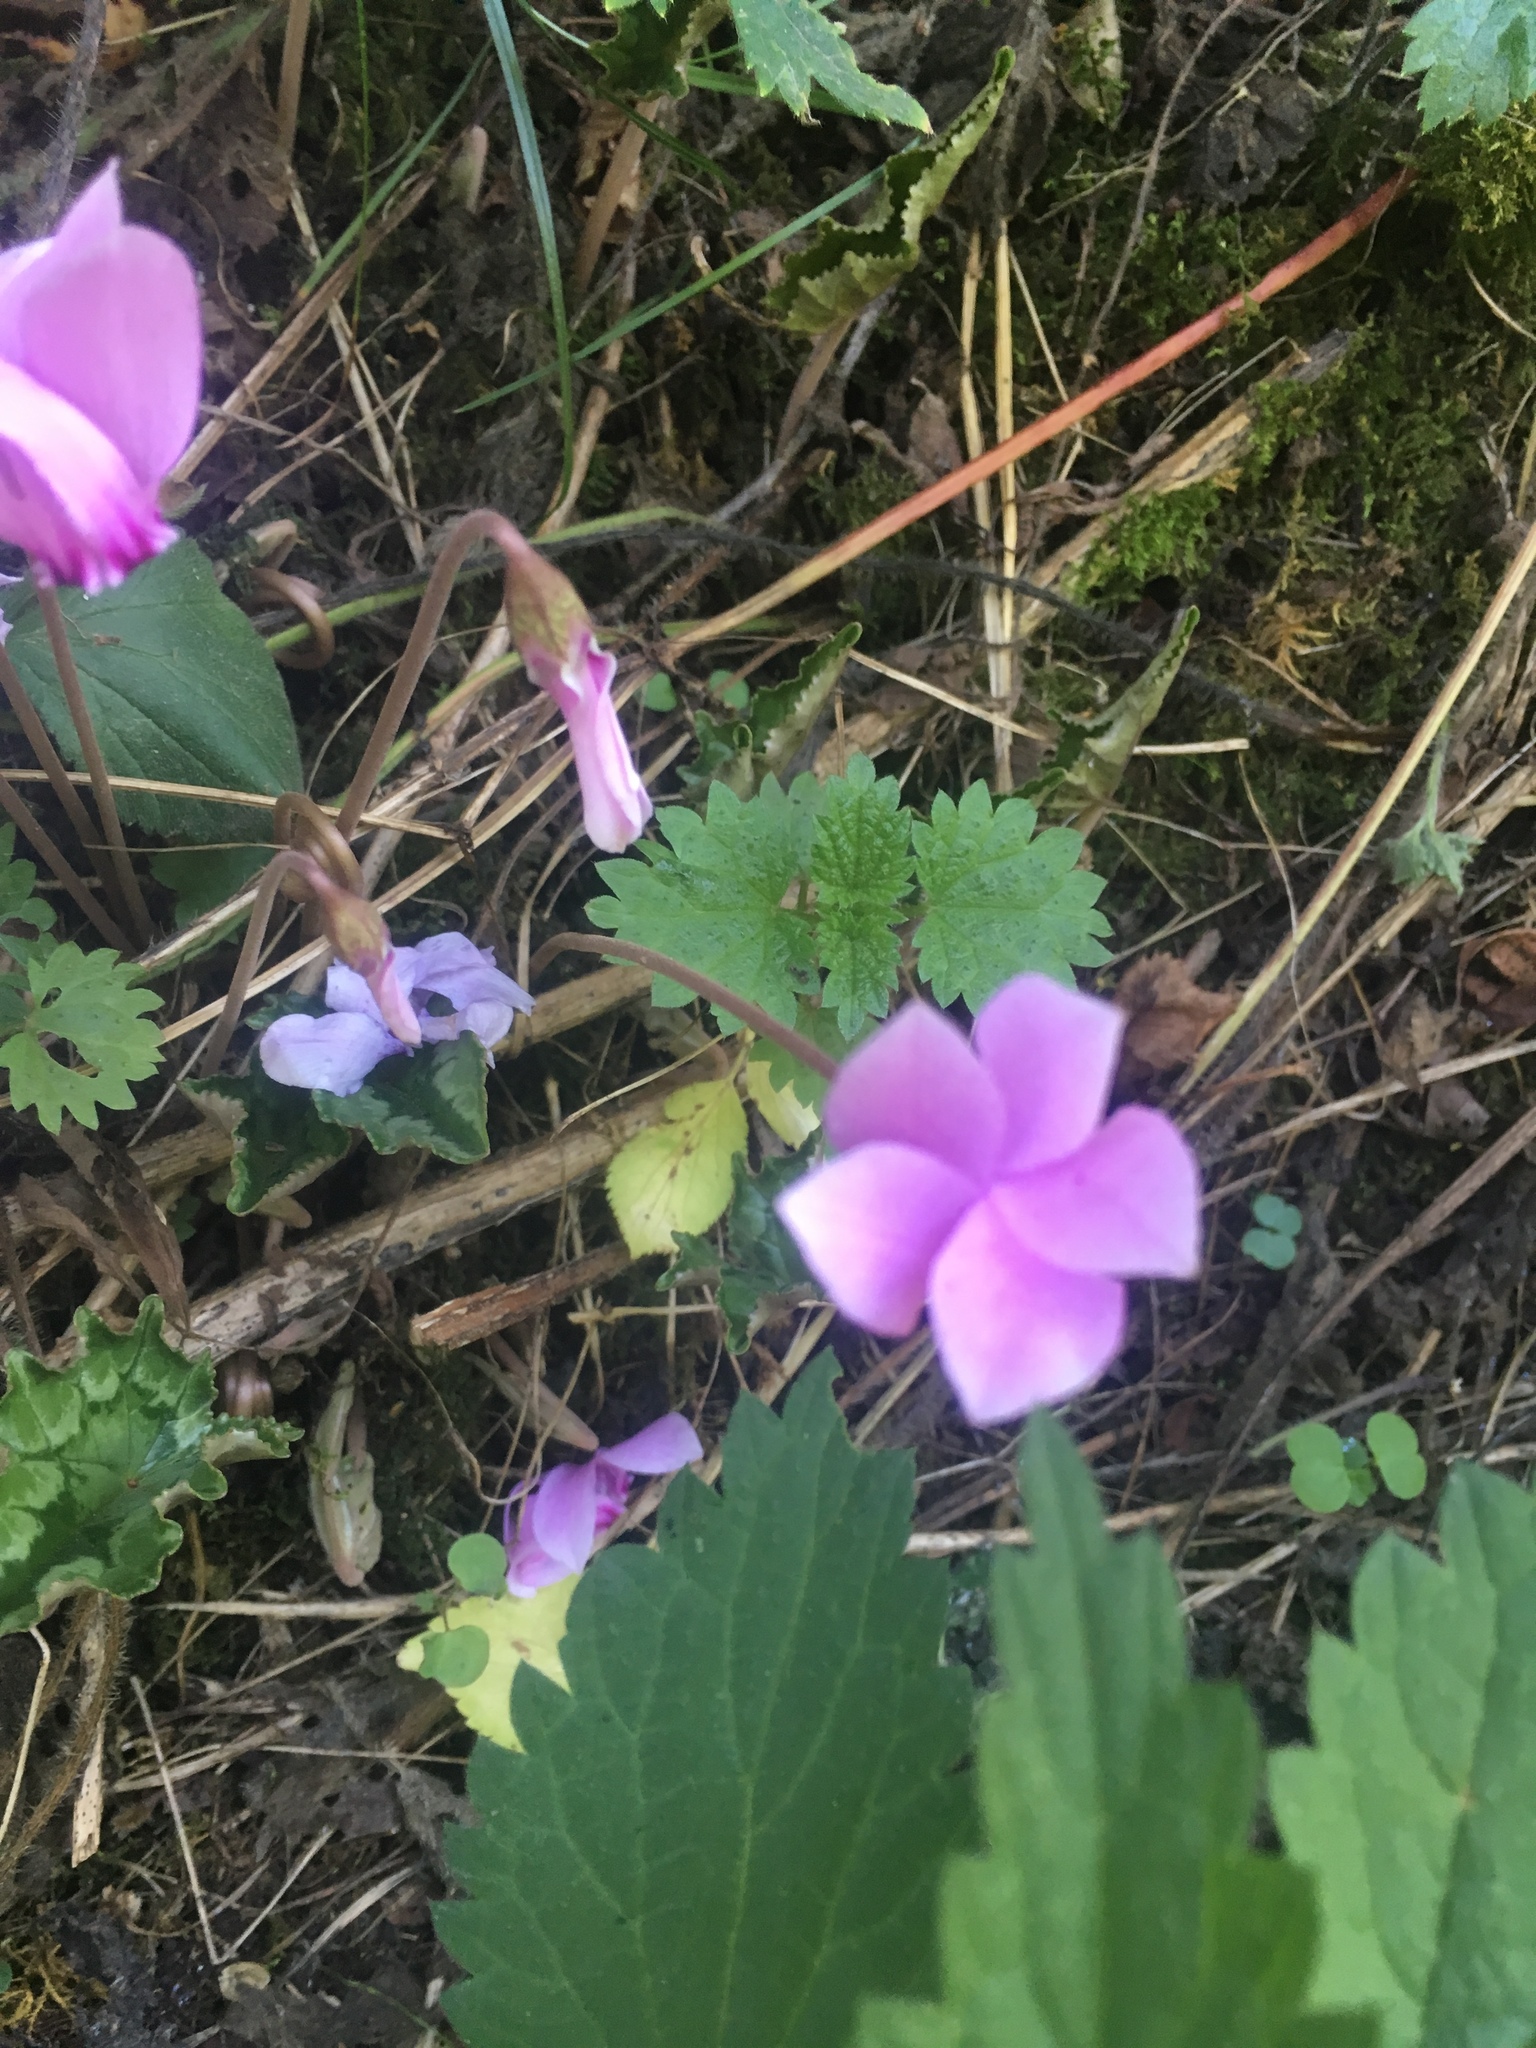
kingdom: Plantae
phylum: Tracheophyta
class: Magnoliopsida
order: Ericales
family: Primulaceae
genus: Cyclamen
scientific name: Cyclamen hederifolium
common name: Sowbread
